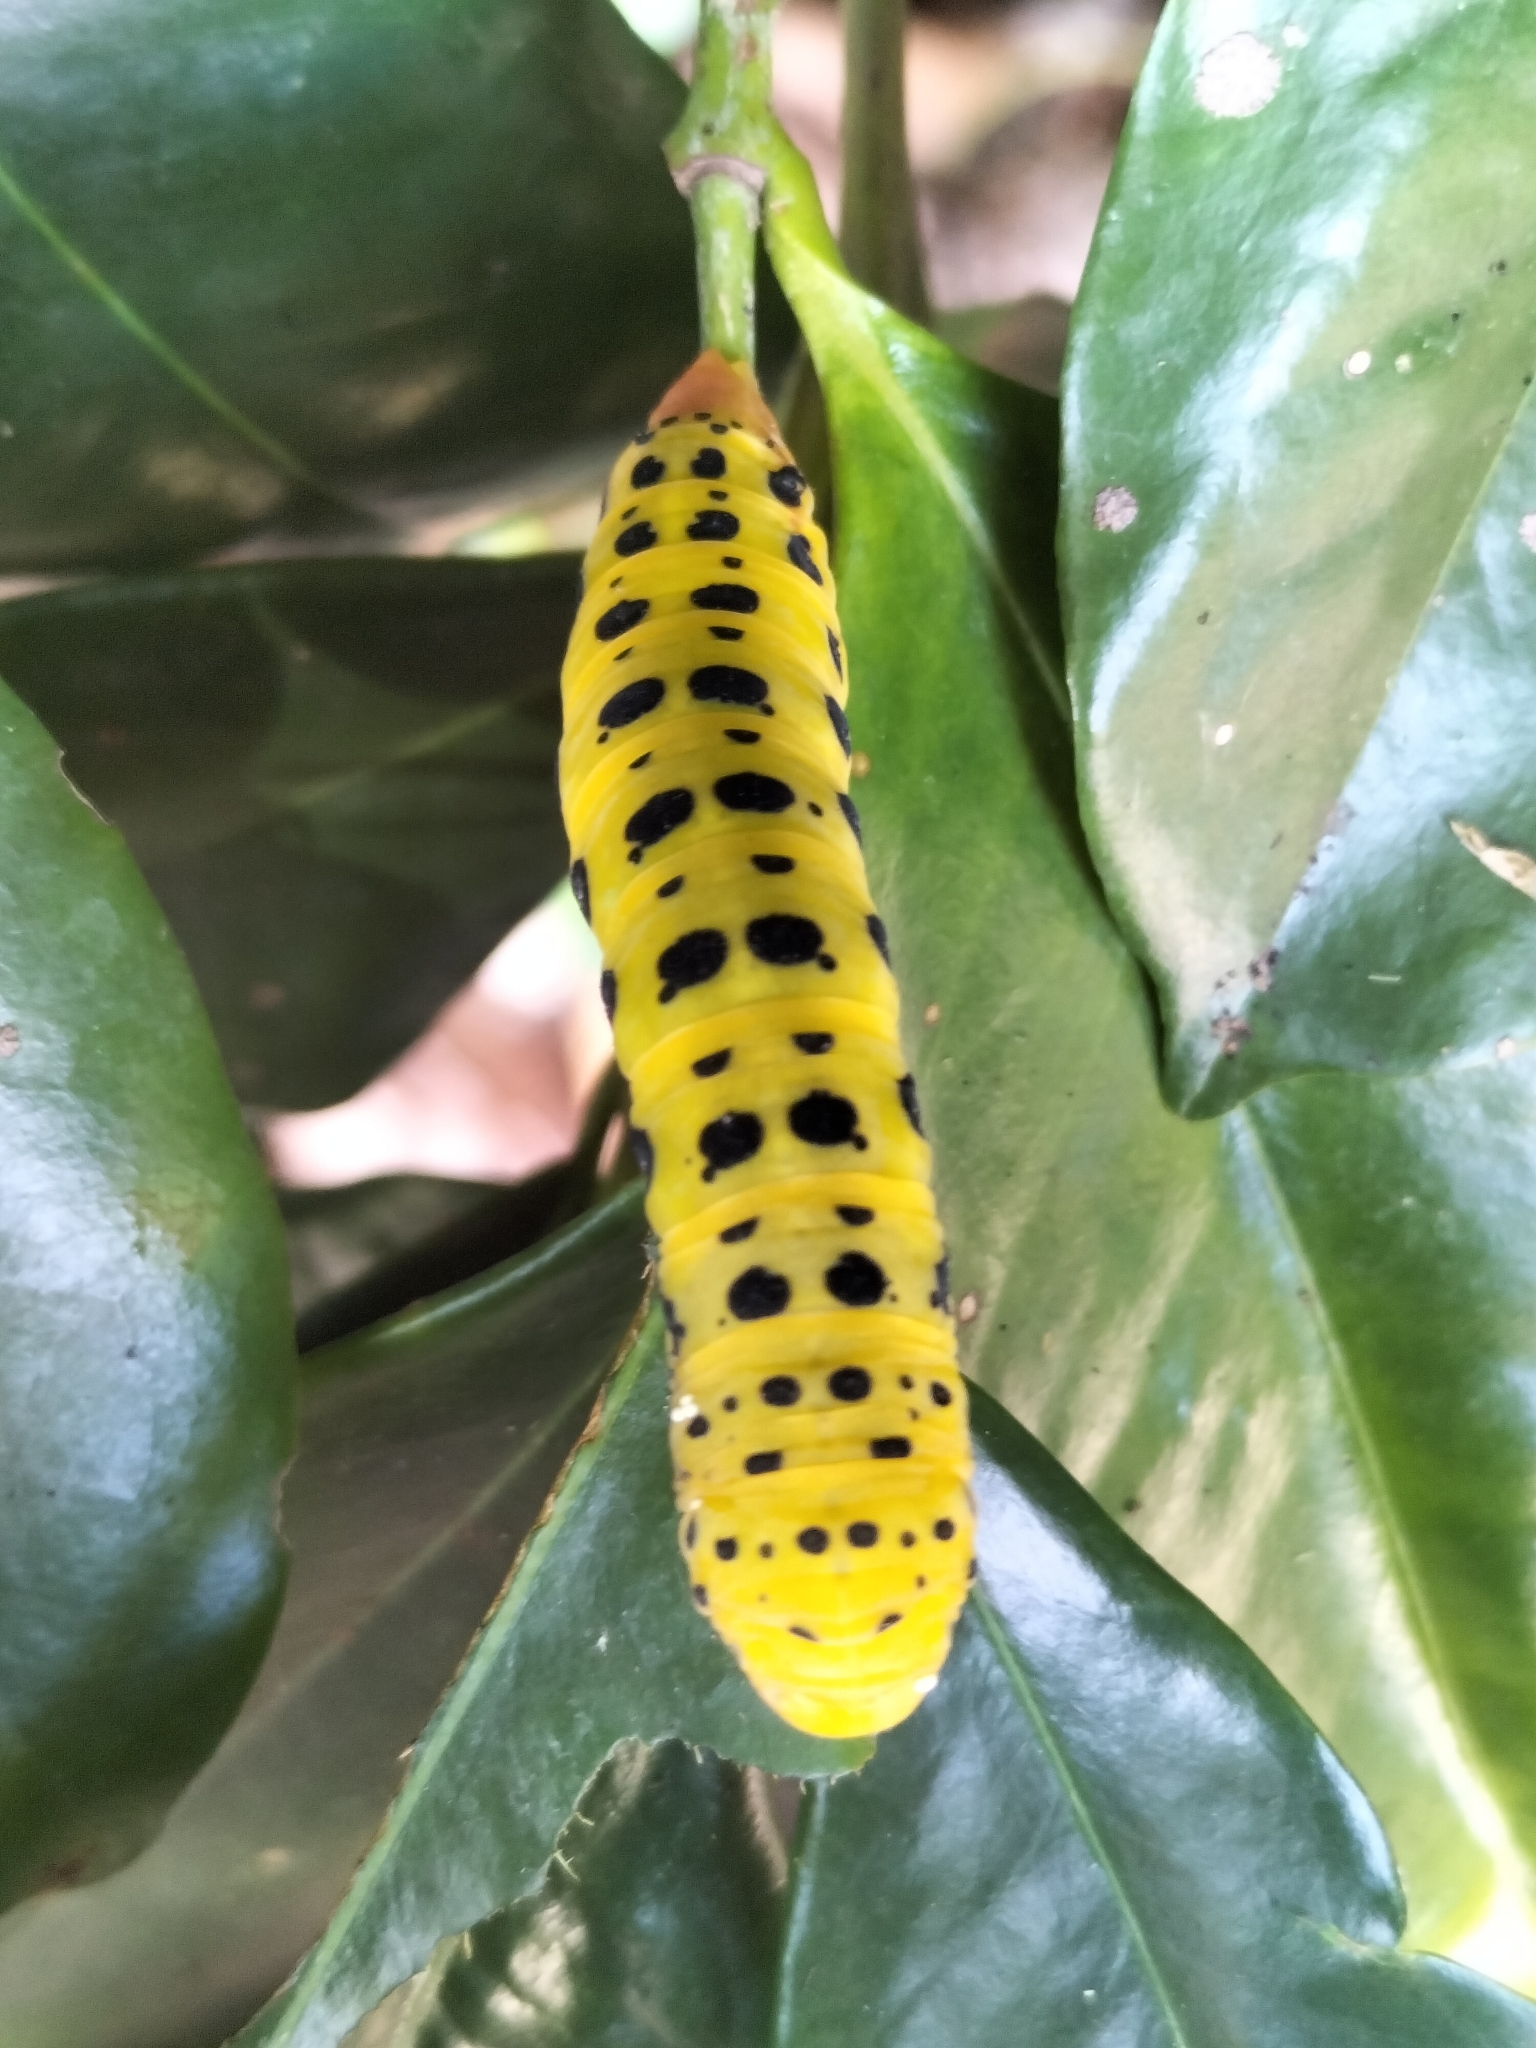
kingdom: Animalia
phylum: Arthropoda
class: Insecta
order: Lepidoptera
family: Geometridae
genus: Dysphania
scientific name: Dysphania numana
